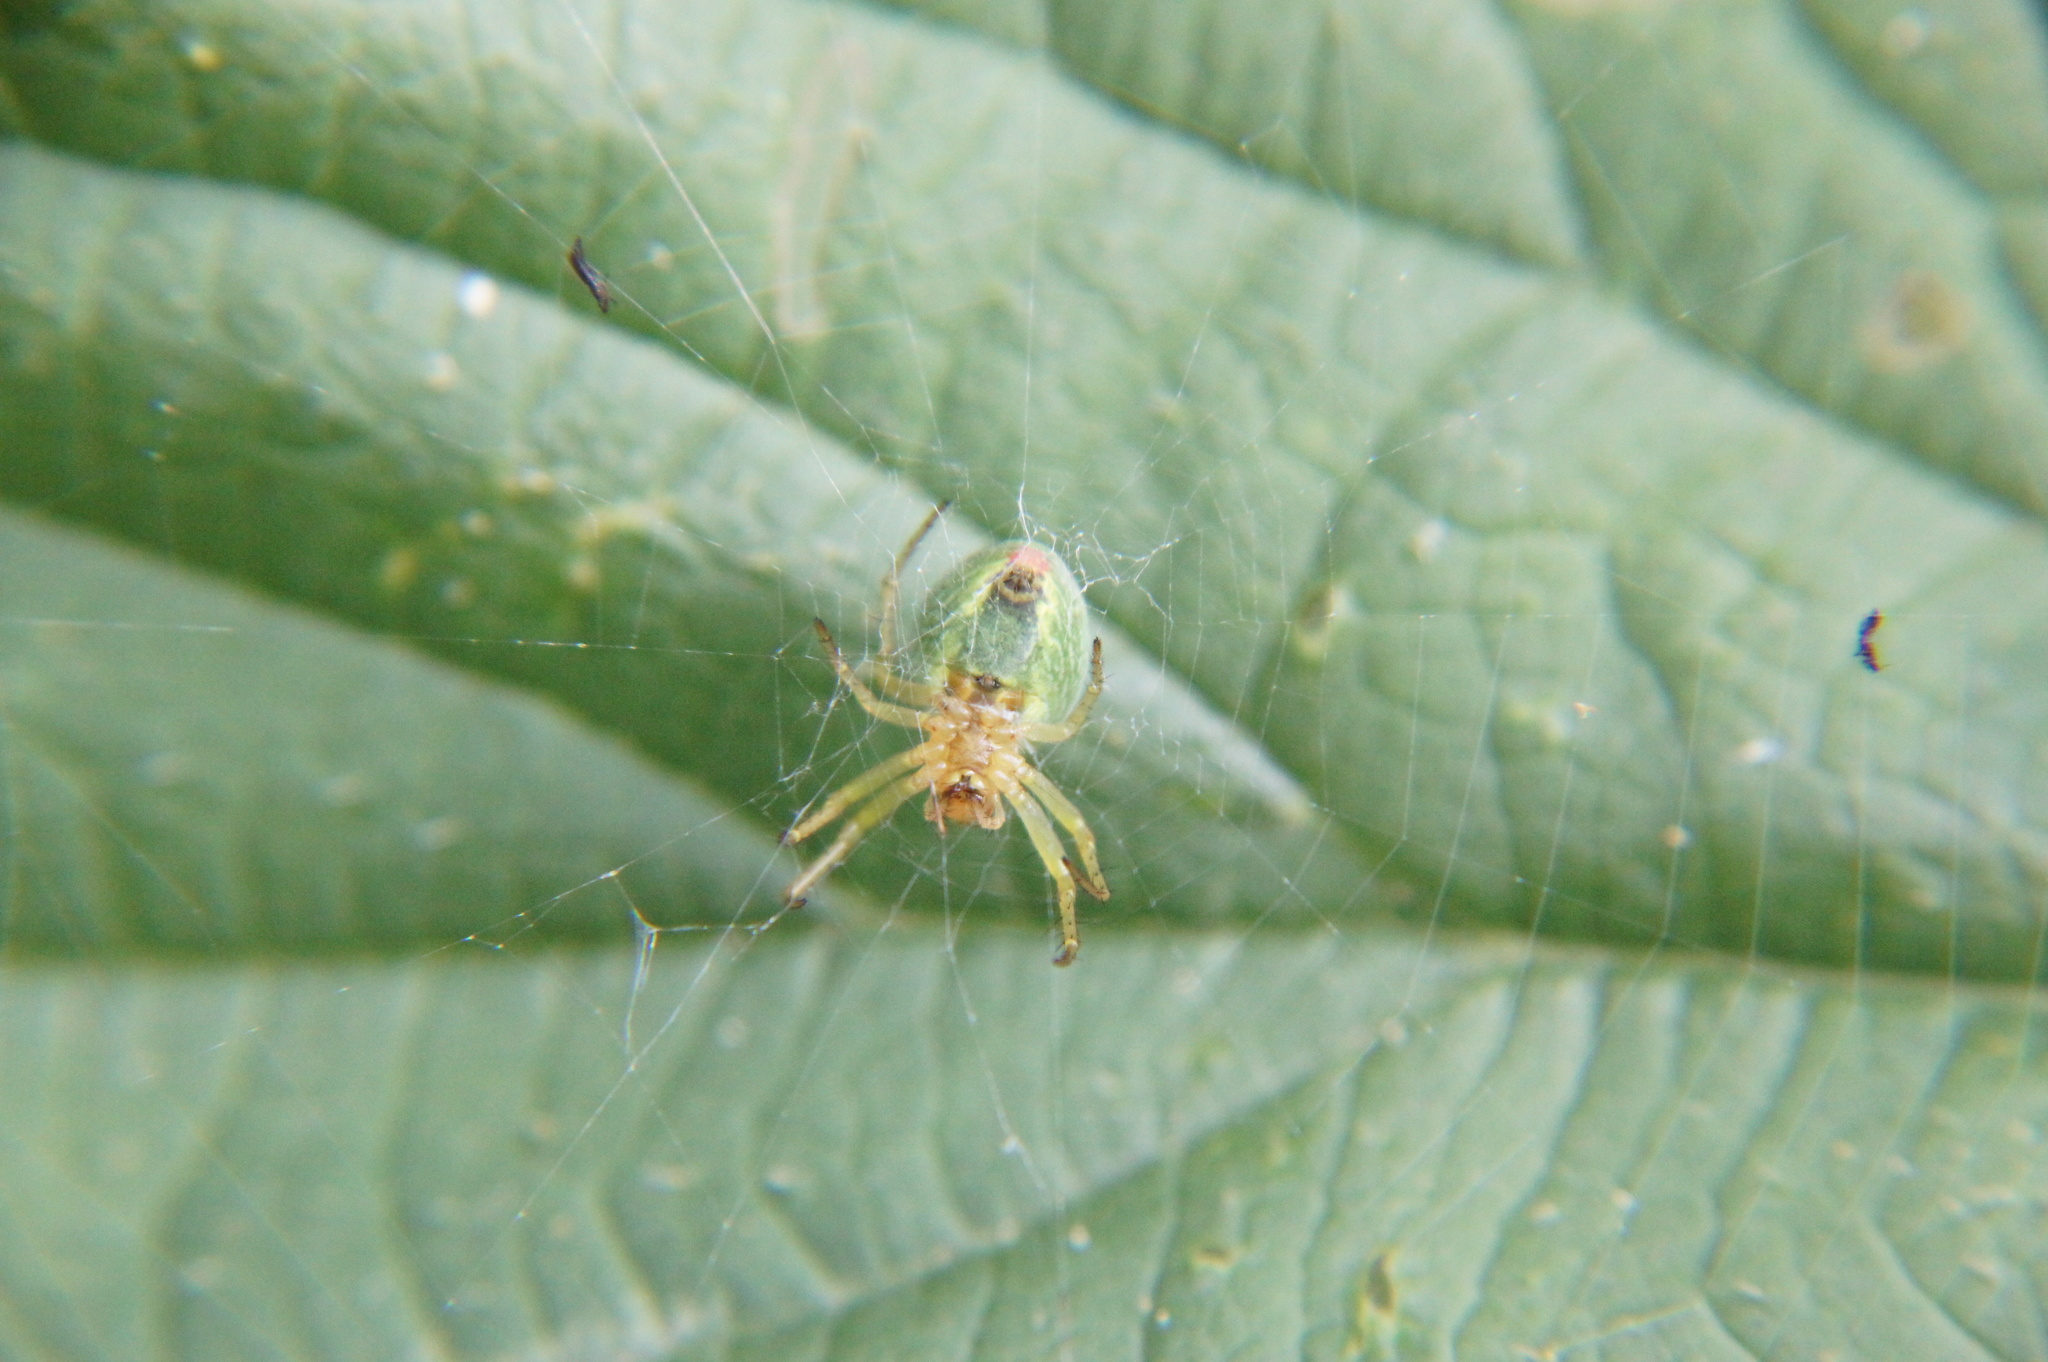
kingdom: Animalia
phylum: Arthropoda
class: Arachnida
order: Araneae
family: Araneidae
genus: Araniella
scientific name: Araniella
